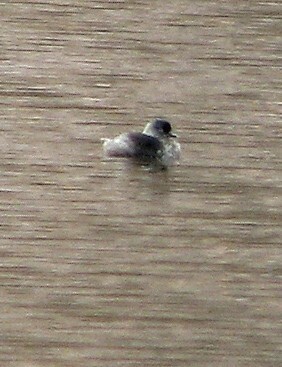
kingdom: Animalia
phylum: Chordata
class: Aves
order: Podicipediformes
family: Podicipedidae
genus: Tachybaptus
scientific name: Tachybaptus dominicus
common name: Least grebe
